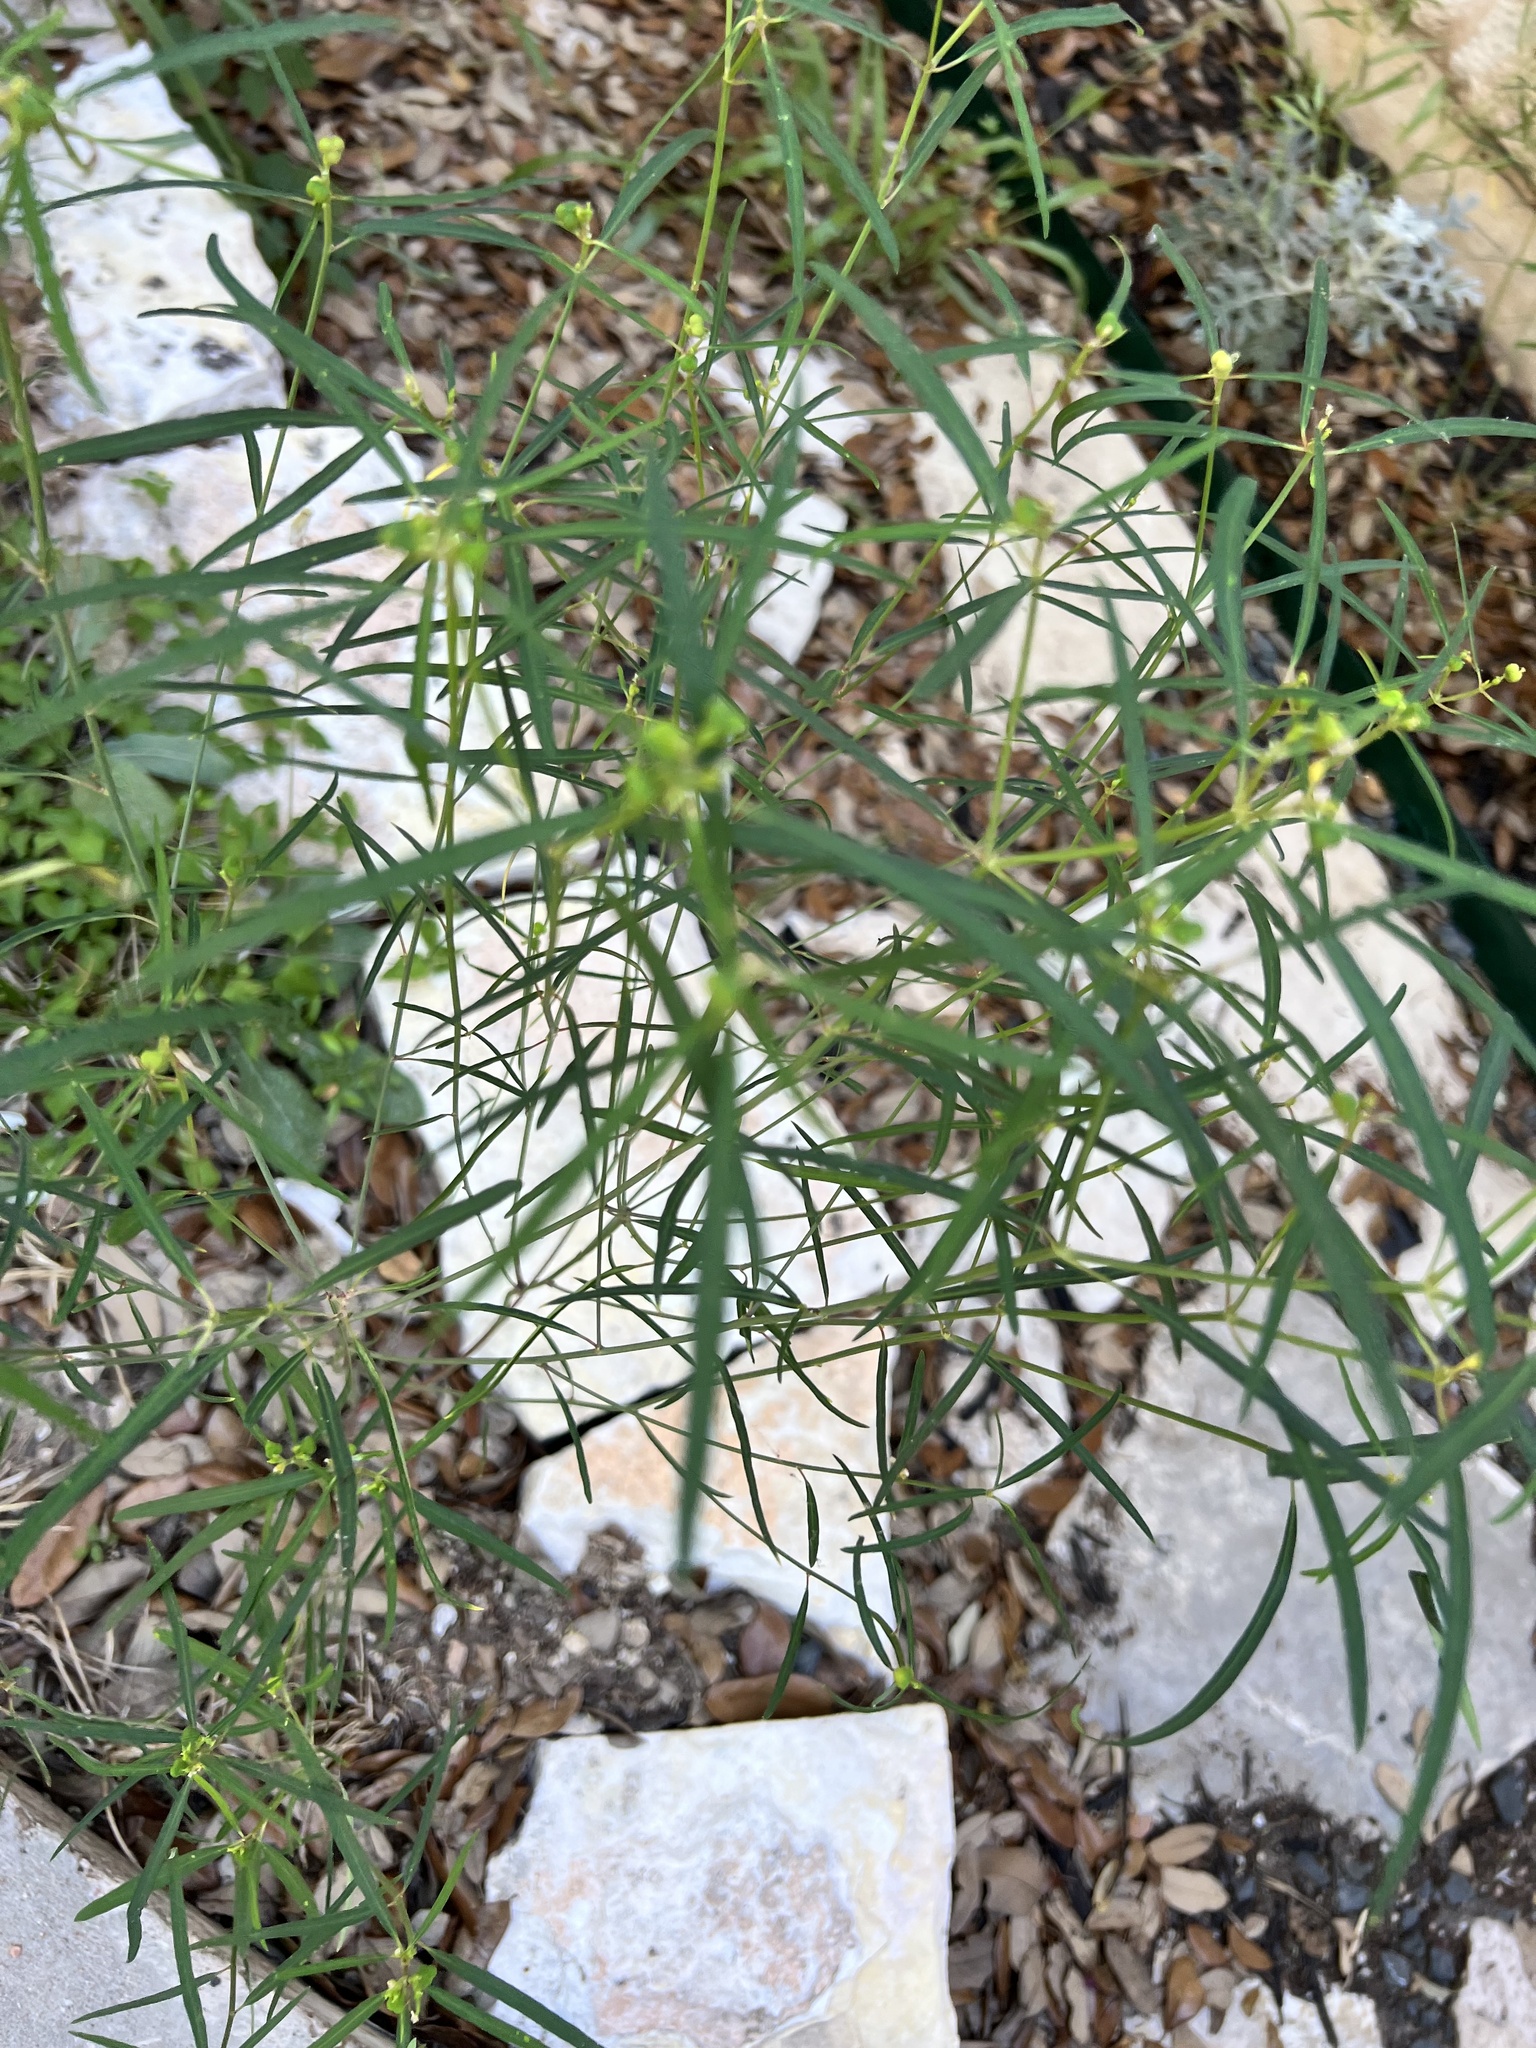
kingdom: Plantae
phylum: Tracheophyta
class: Magnoliopsida
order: Malpighiales
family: Euphorbiaceae
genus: Euphorbia
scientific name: Euphorbia heterophylla
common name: Mexican fireplant
